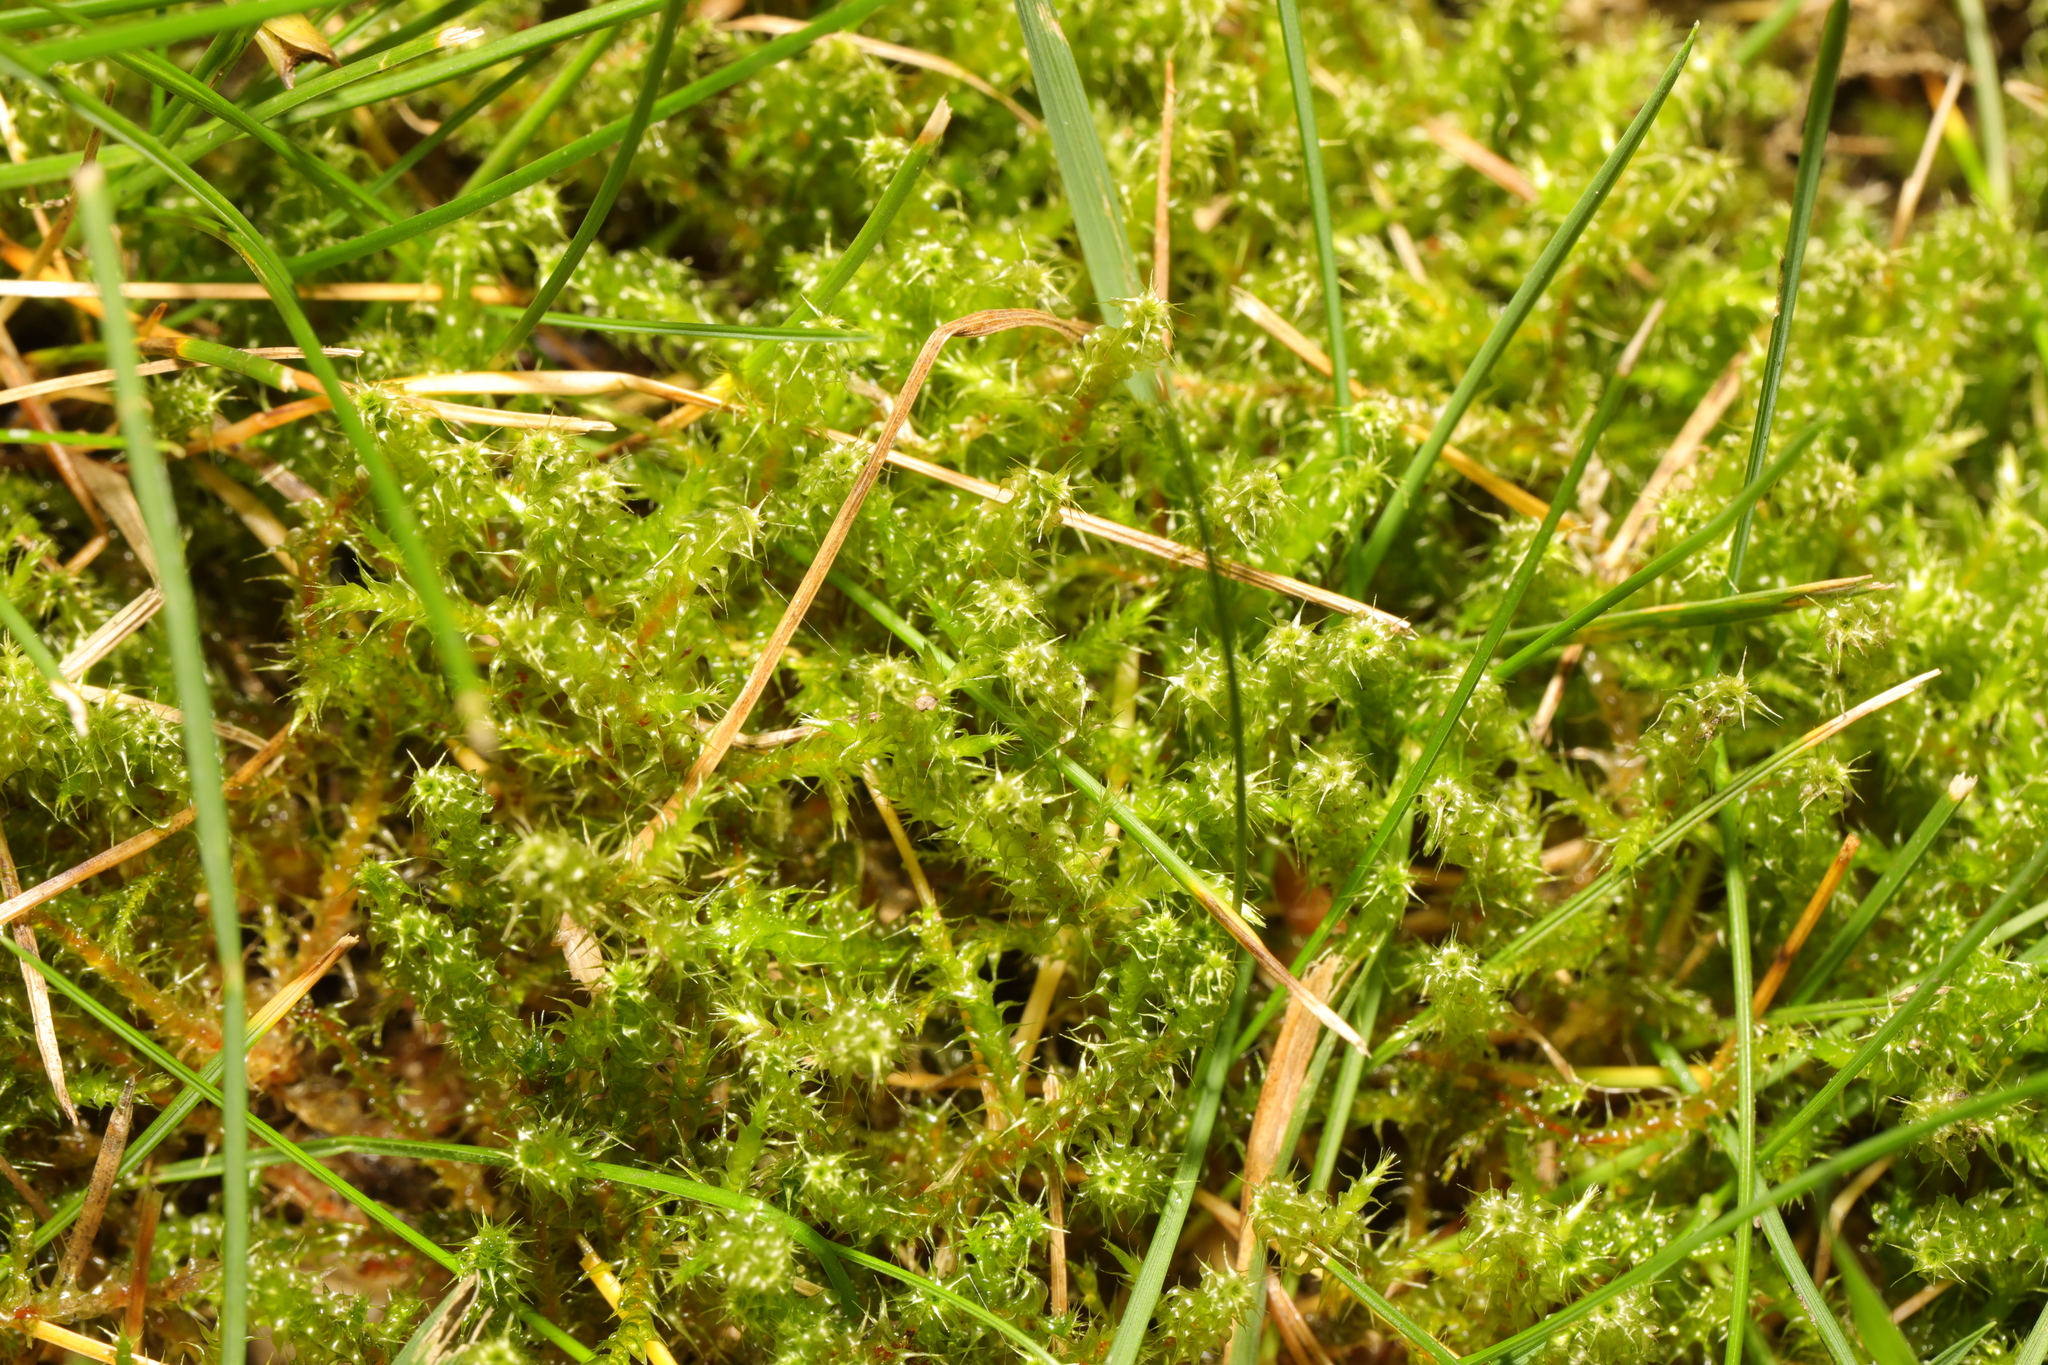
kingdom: Plantae
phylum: Bryophyta
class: Bryopsida
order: Hypnales
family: Hylocomiaceae
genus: Rhytidiadelphus
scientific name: Rhytidiadelphus squarrosus
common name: Springy turf-moss
